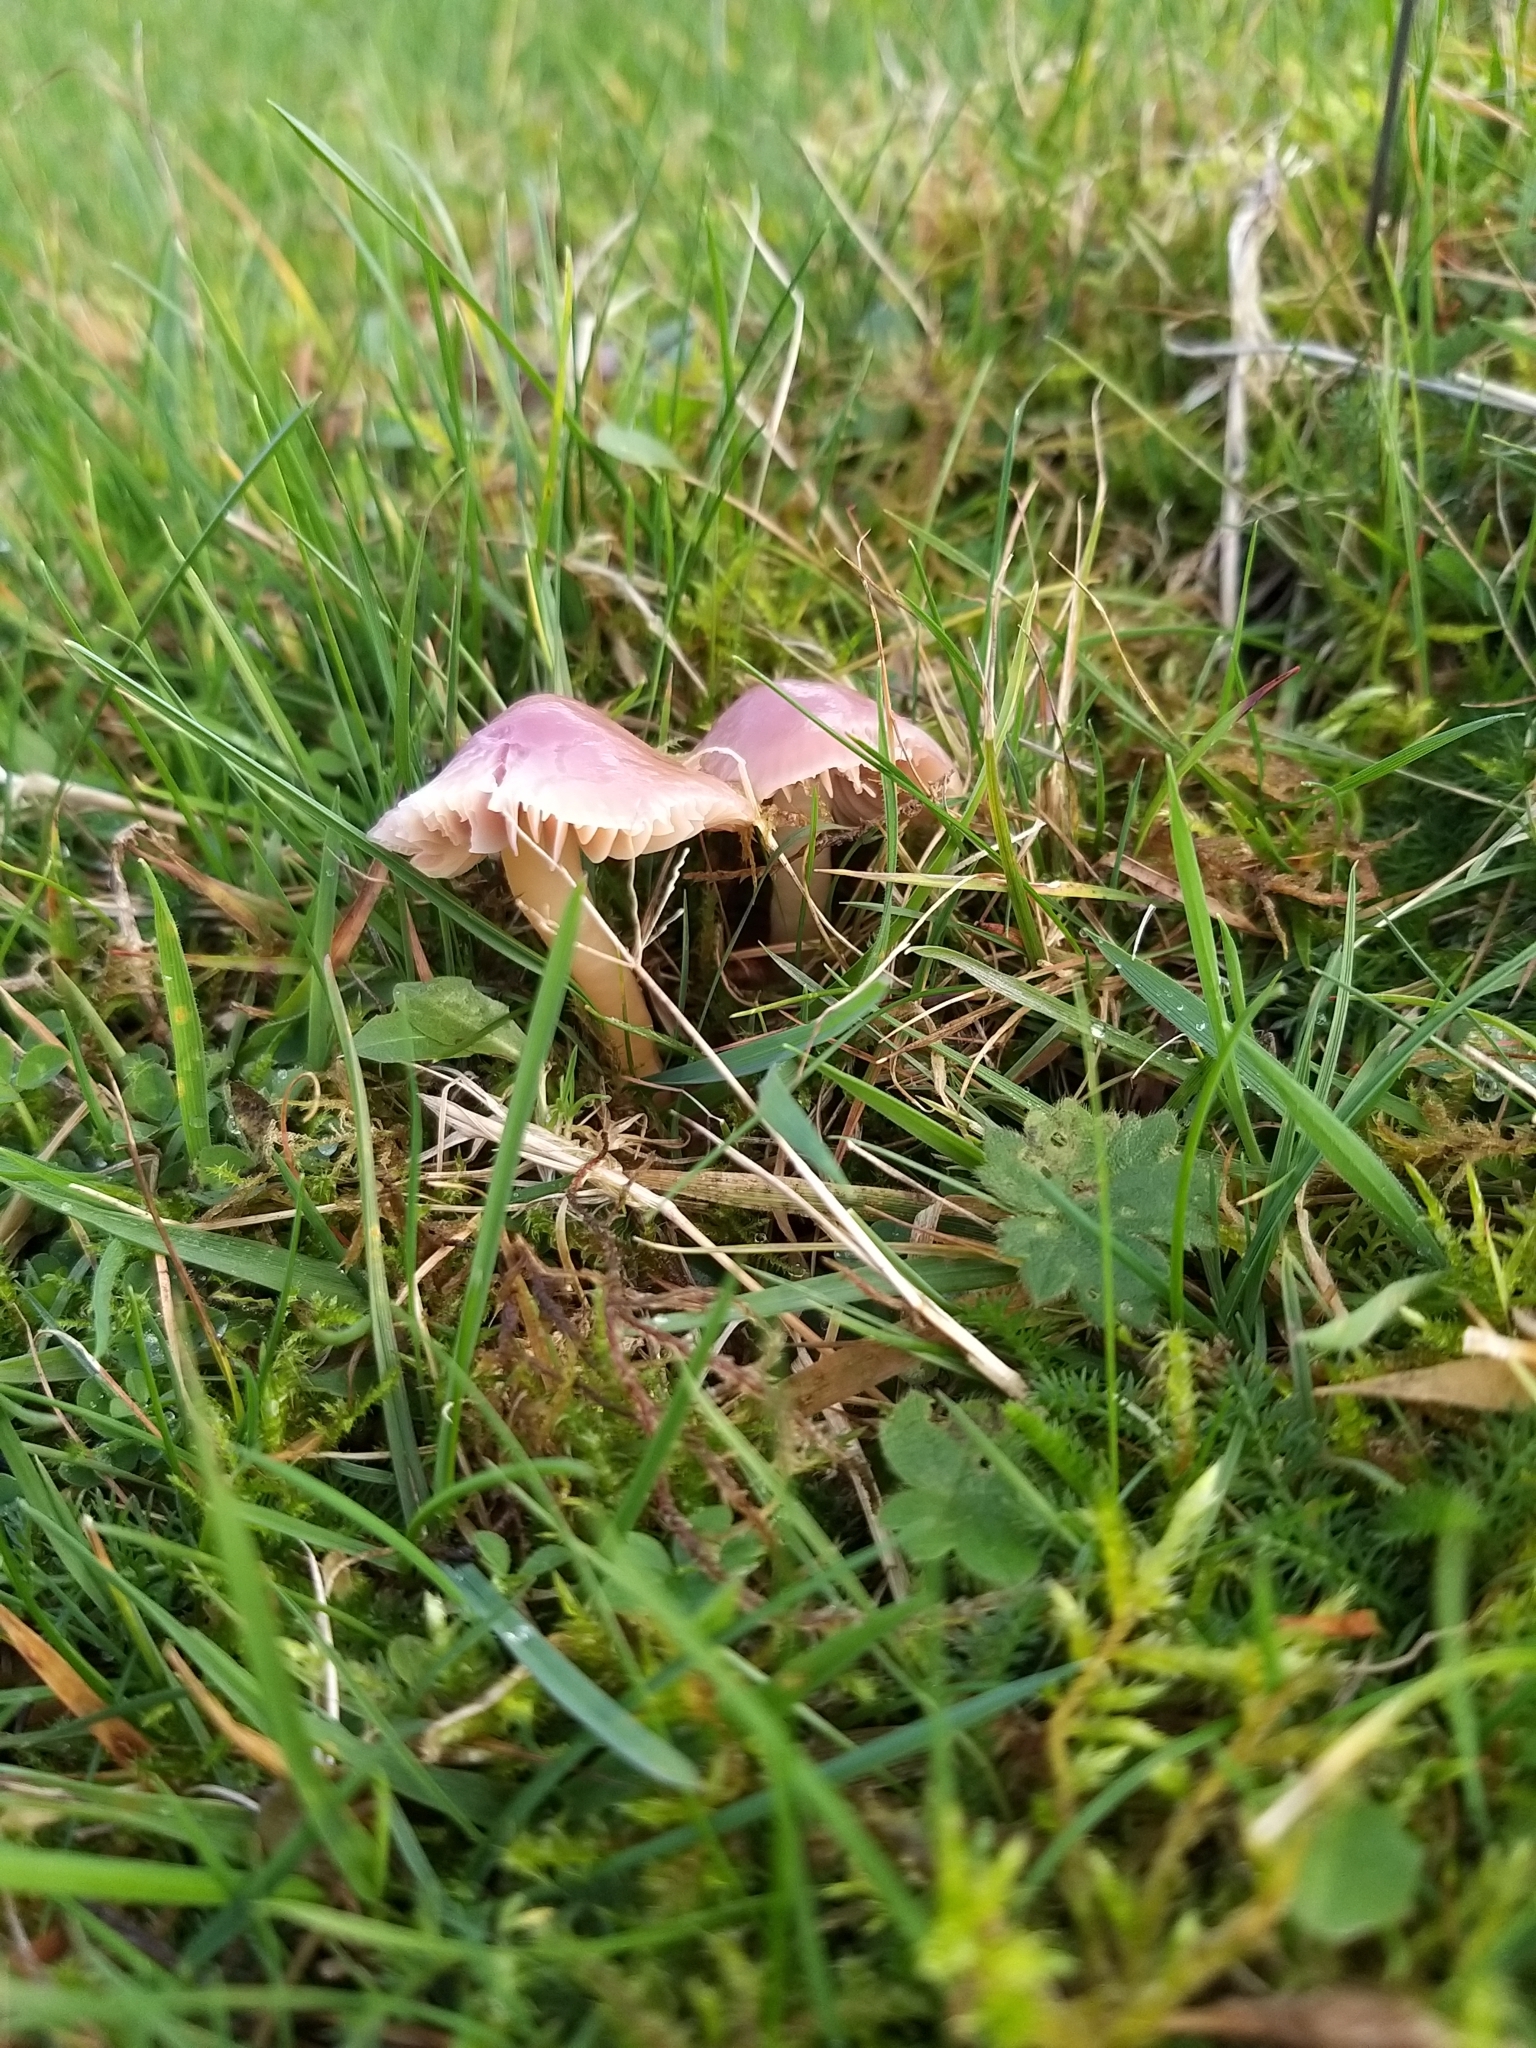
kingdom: Fungi
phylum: Basidiomycota
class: Agaricomycetes
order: Agaricales
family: Hygrophoraceae
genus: Gliophorus
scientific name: Gliophorus reginae
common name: Jubilee waxcap
